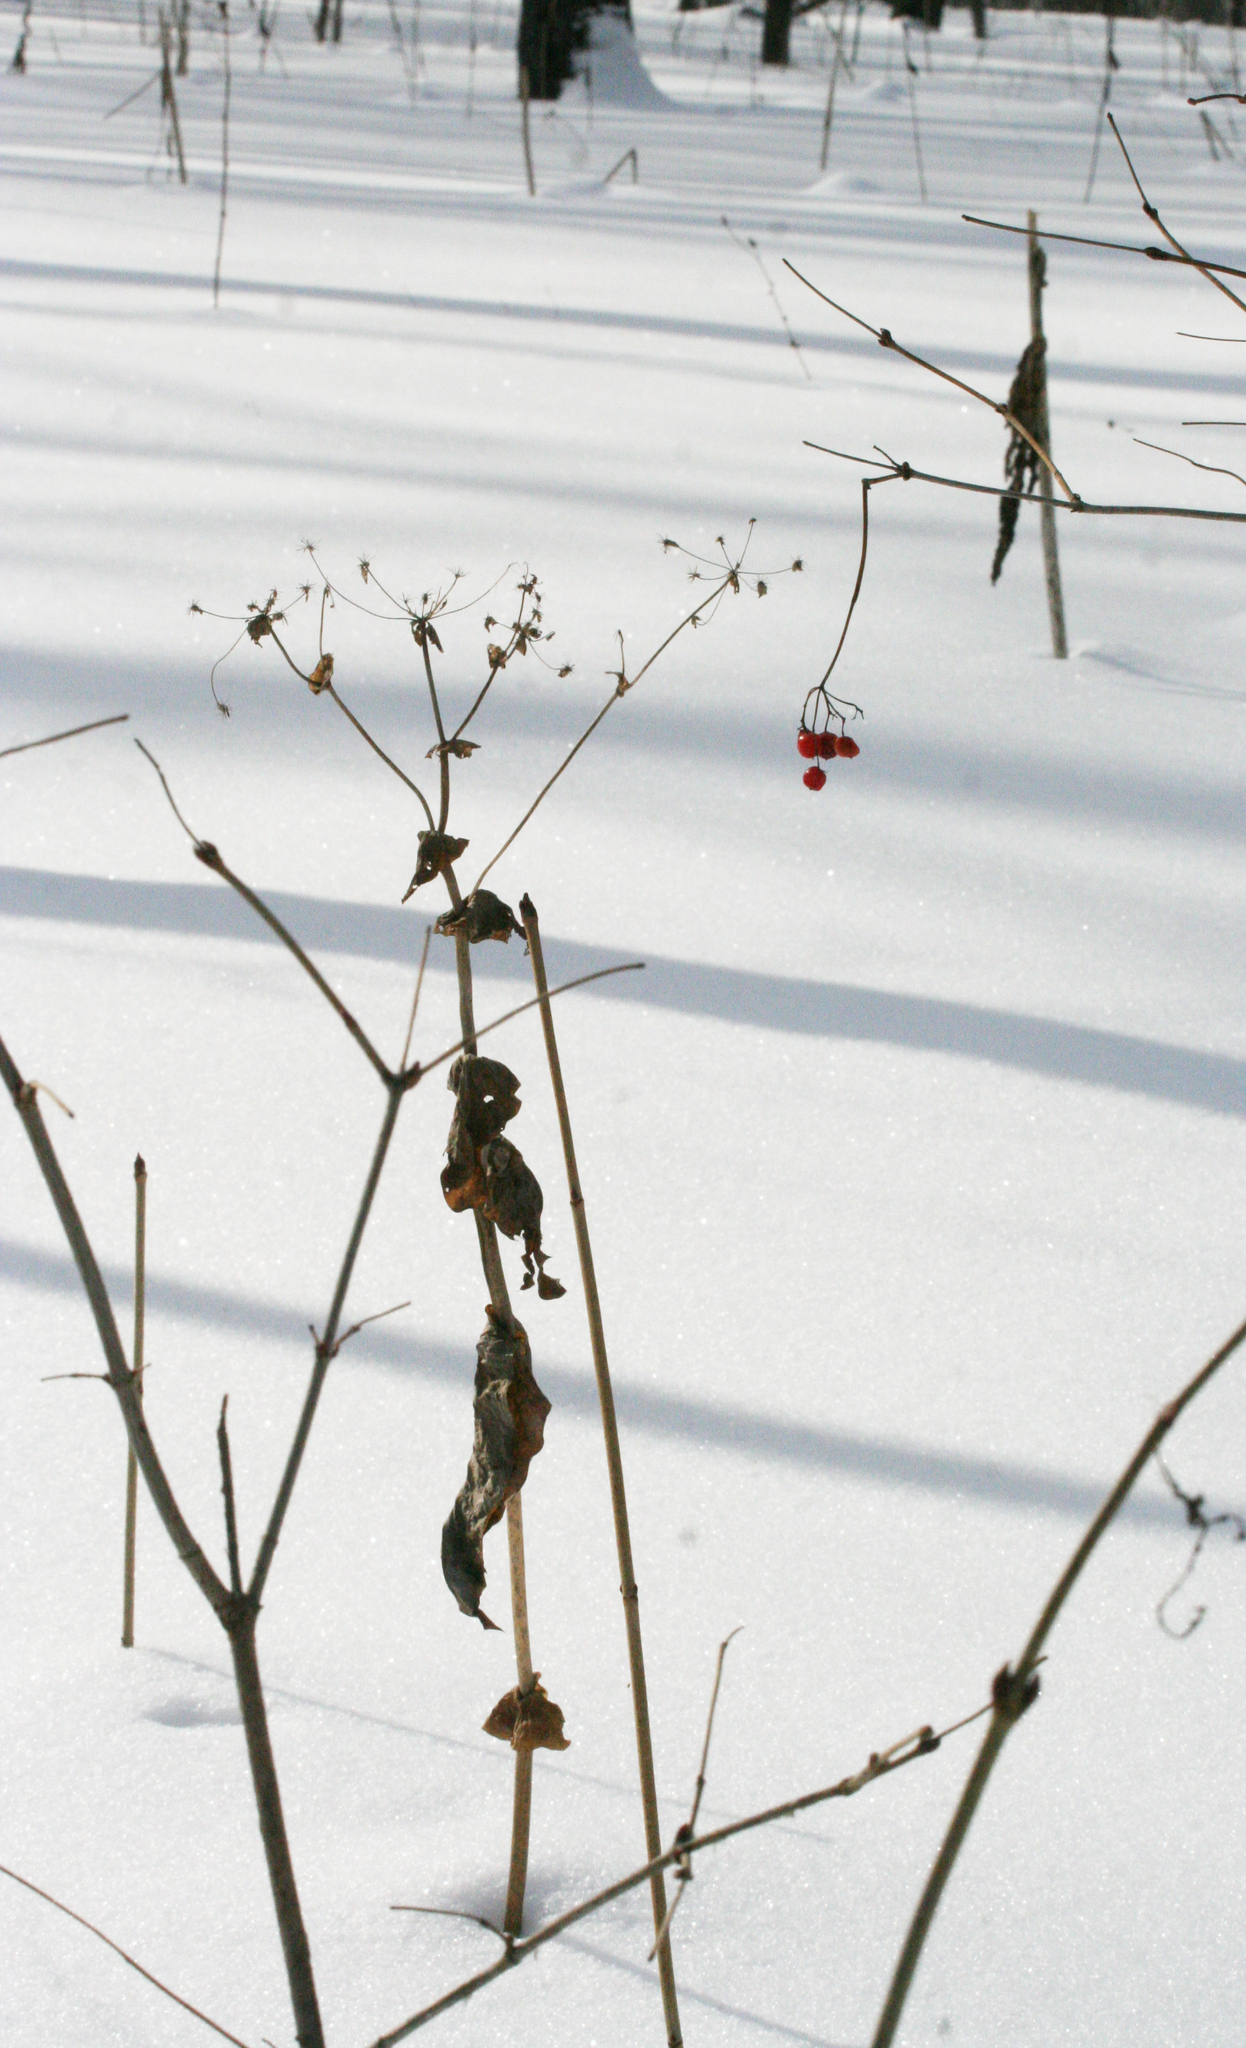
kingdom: Plantae
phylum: Tracheophyta
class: Magnoliopsida
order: Apiales
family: Apiaceae
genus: Bupleurum
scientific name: Bupleurum aureum
